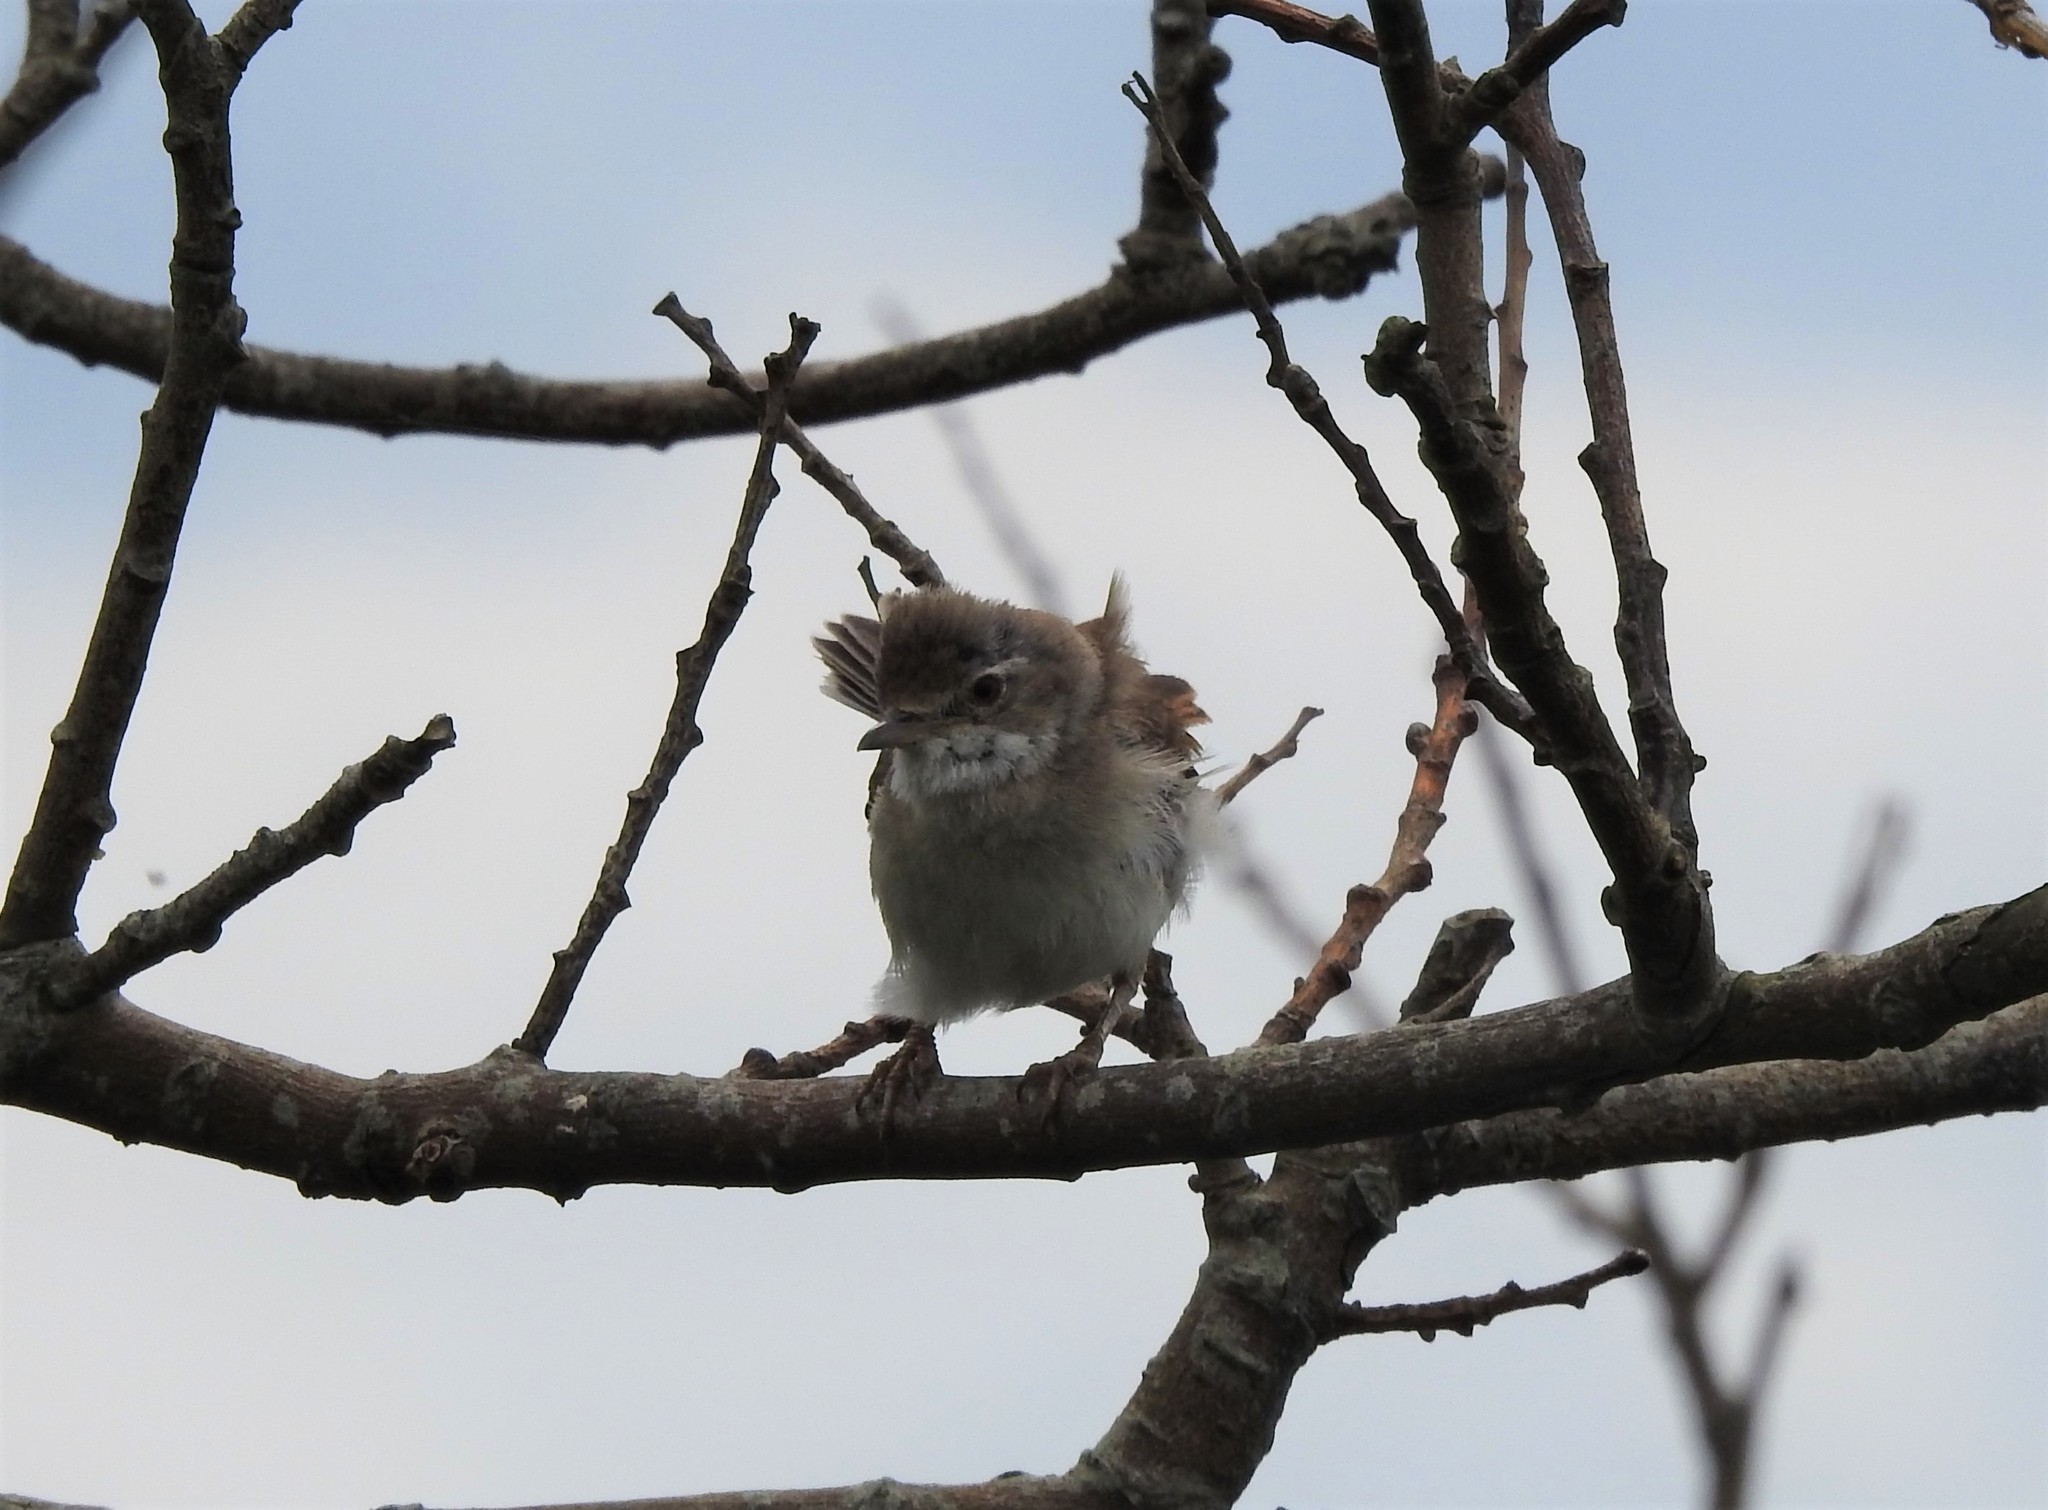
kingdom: Animalia
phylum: Chordata
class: Aves
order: Passeriformes
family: Sylviidae
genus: Sylvia
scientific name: Sylvia communis
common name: Common whitethroat
